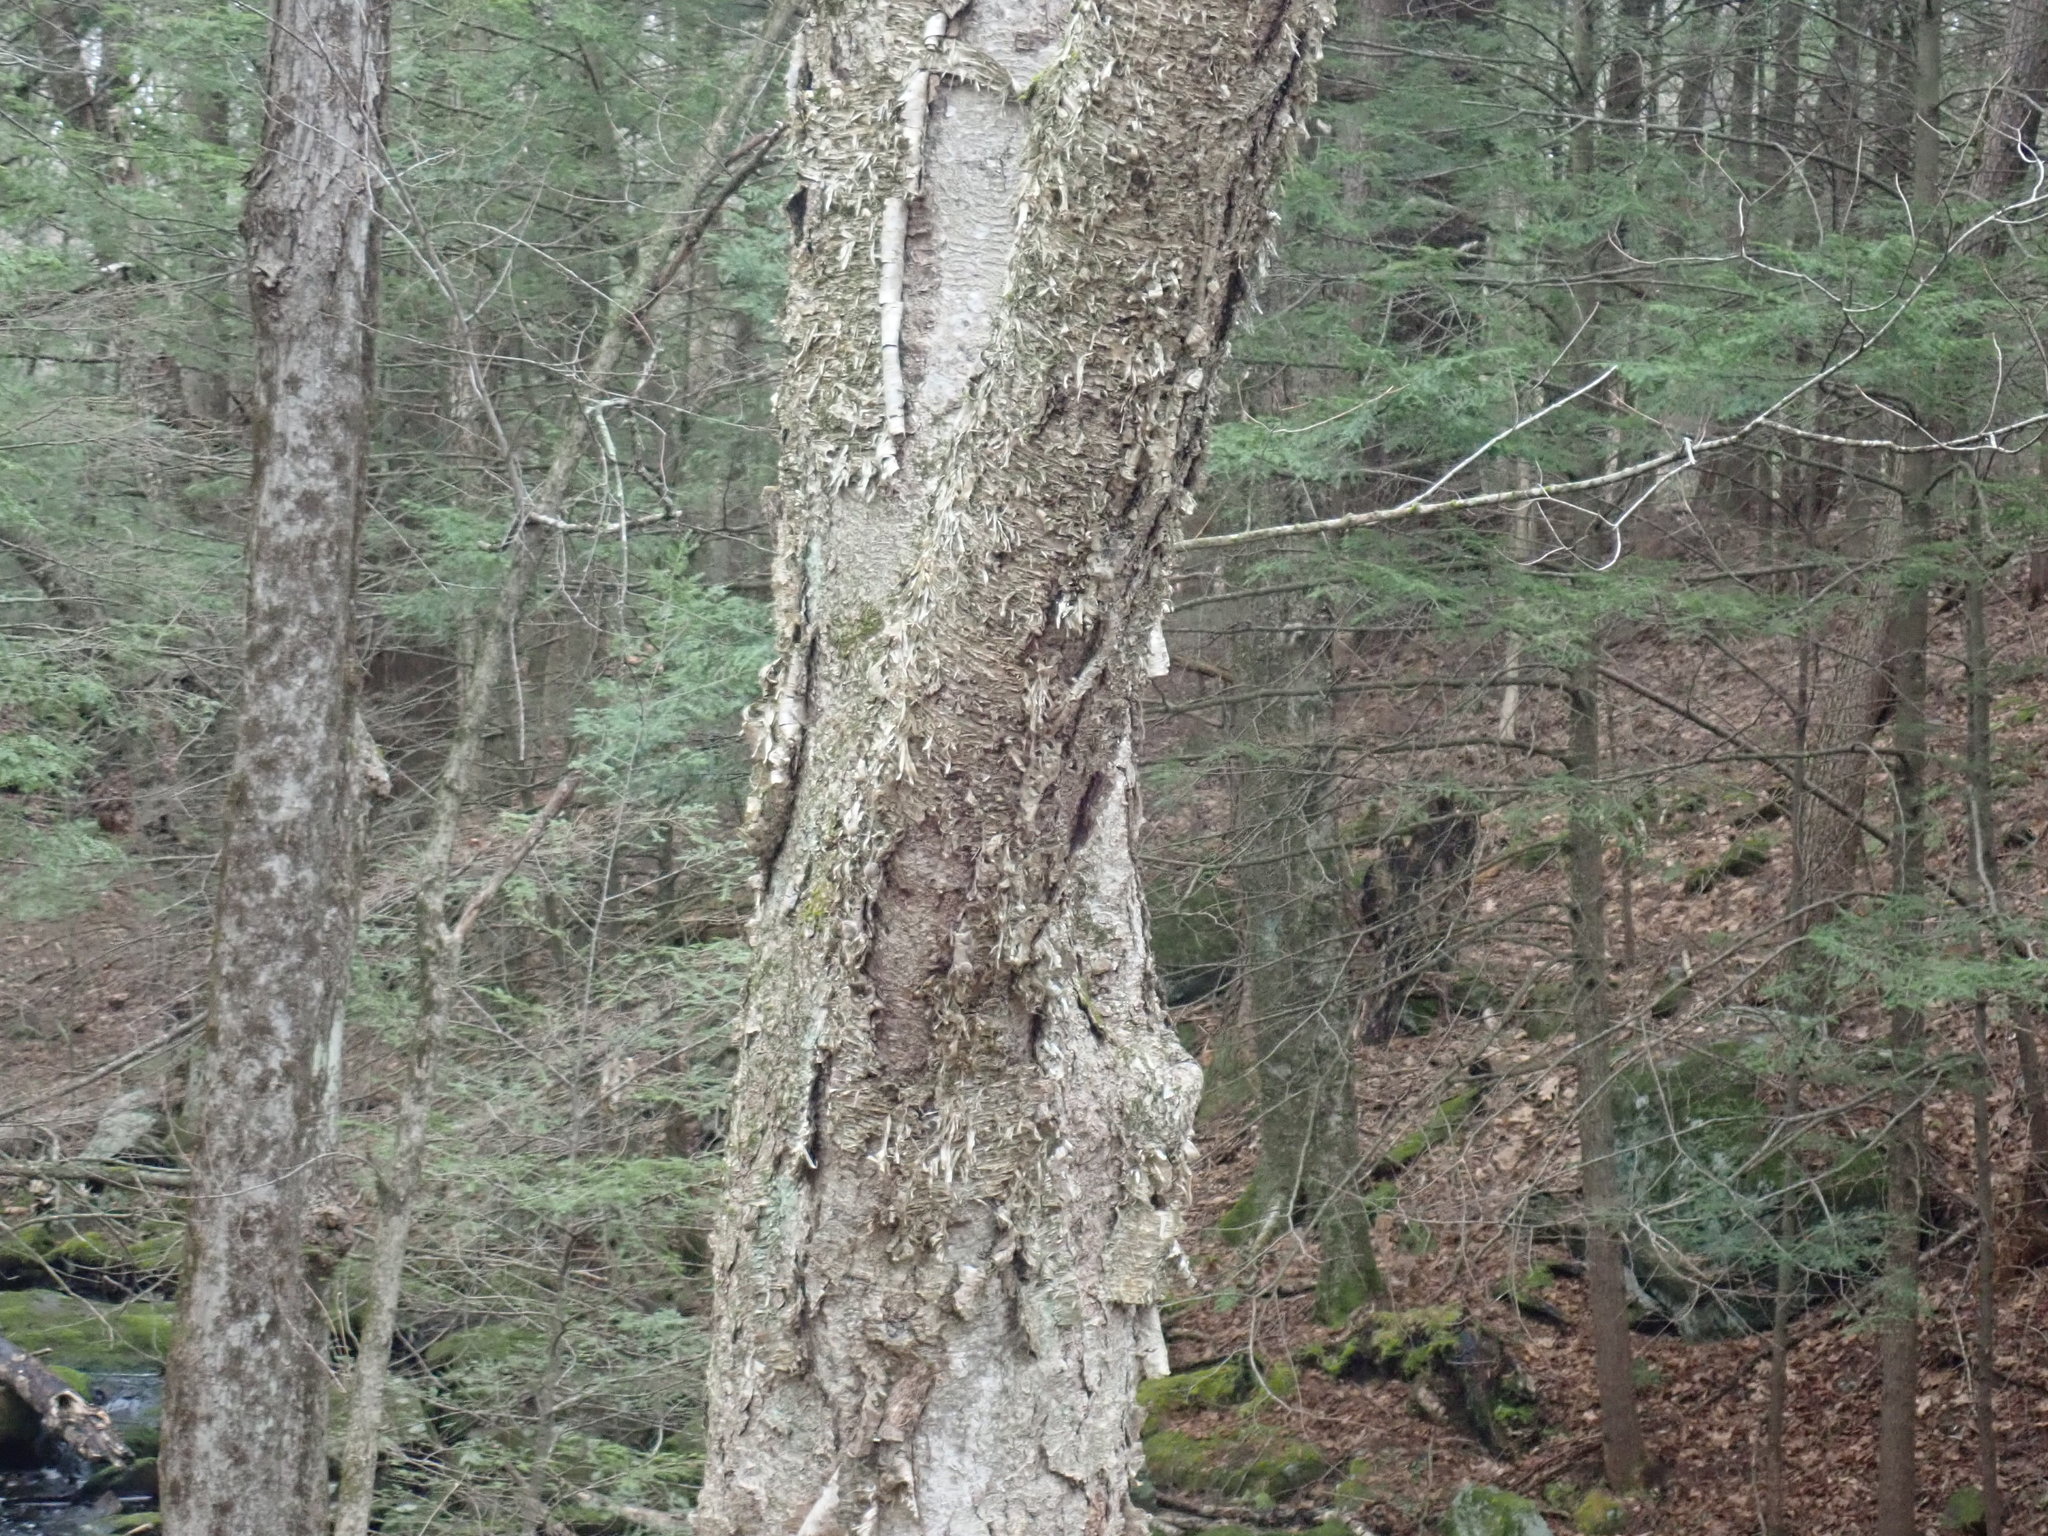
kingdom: Plantae
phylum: Tracheophyta
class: Magnoliopsida
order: Fagales
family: Betulaceae
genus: Betula
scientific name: Betula alleghaniensis
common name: Yellow birch
